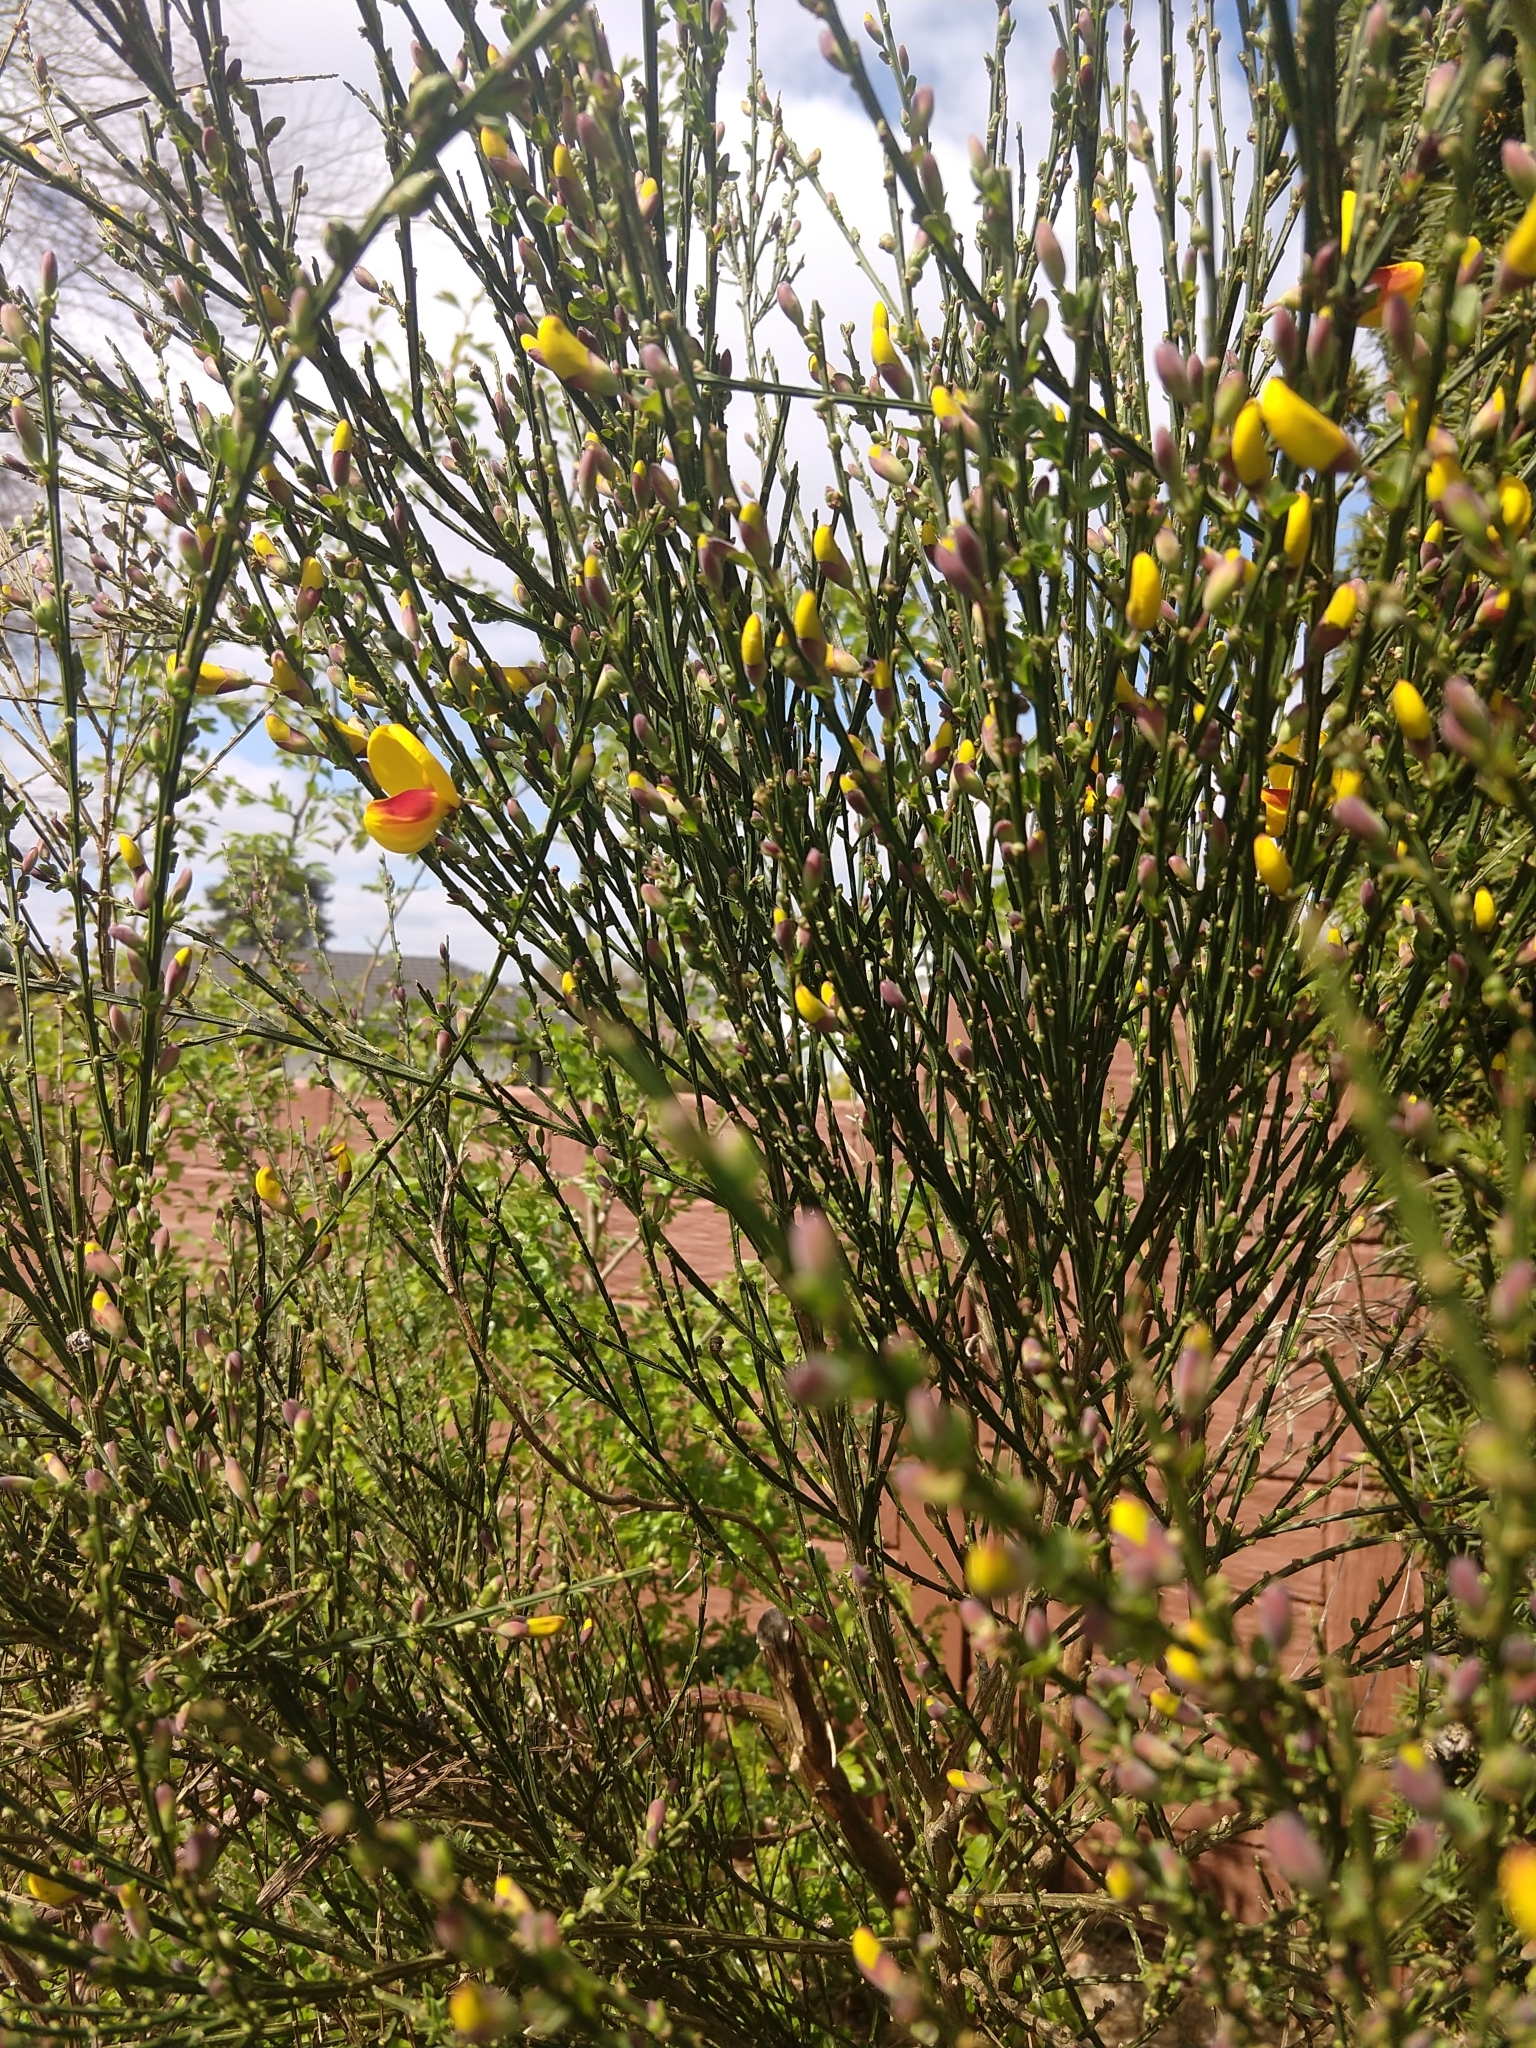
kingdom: Plantae
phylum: Tracheophyta
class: Magnoliopsida
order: Fabales
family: Fabaceae
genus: Cytisus
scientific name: Cytisus scoparius
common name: Scotch broom
